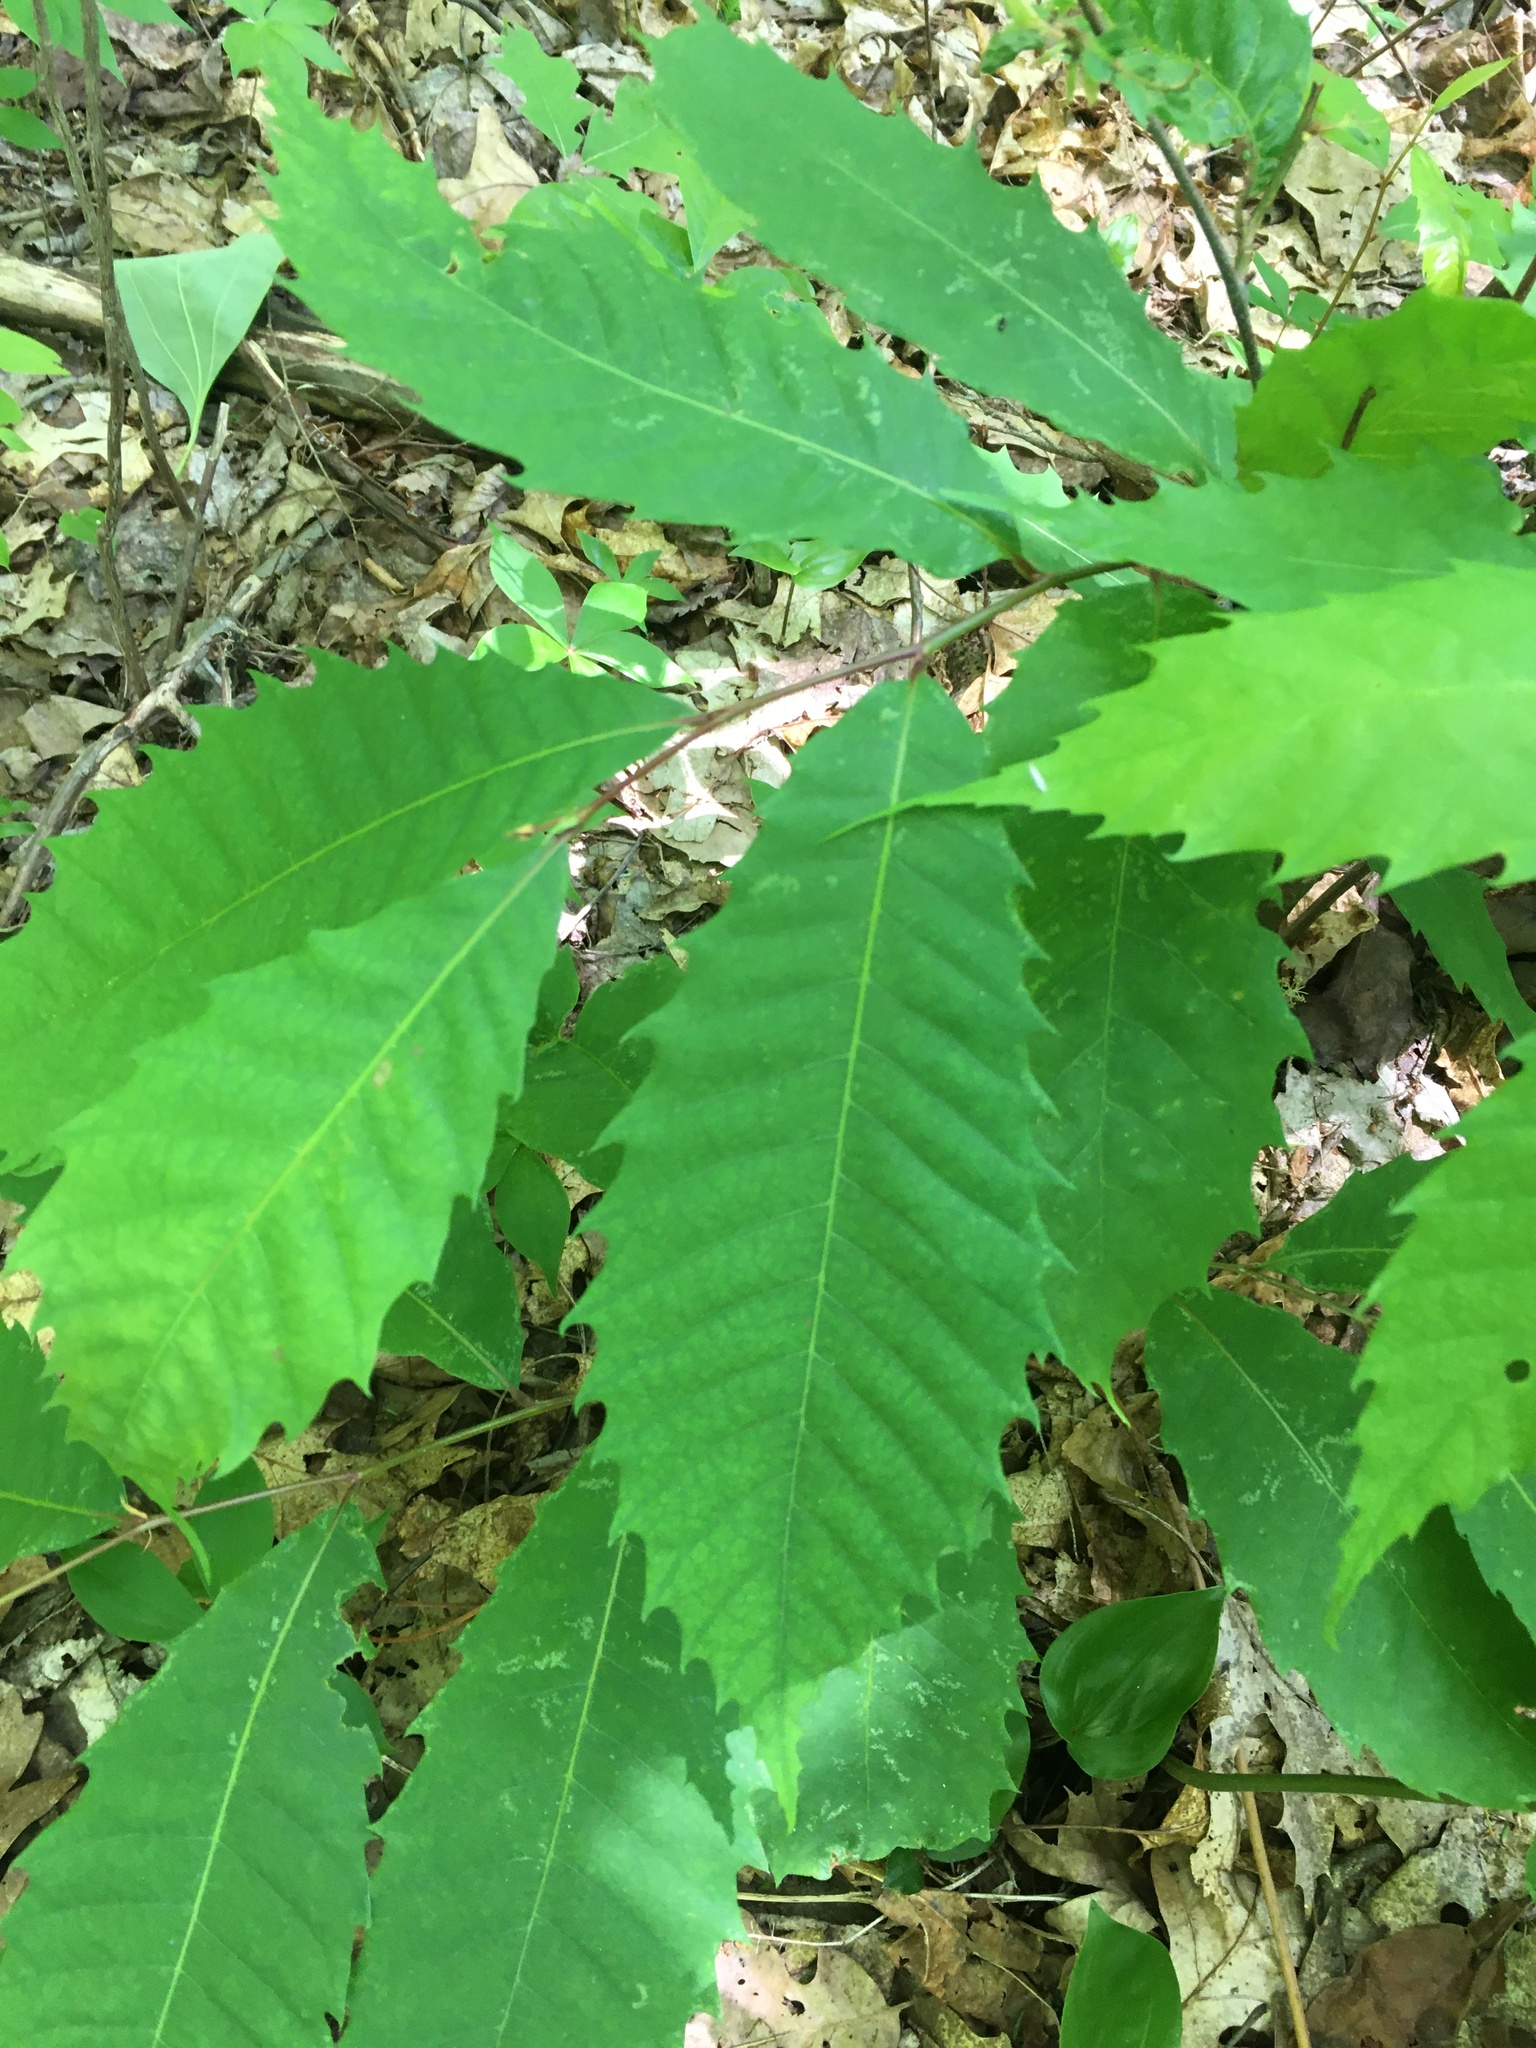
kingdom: Plantae
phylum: Tracheophyta
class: Magnoliopsida
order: Fagales
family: Fagaceae
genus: Castanea
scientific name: Castanea dentata
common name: American chestnut
